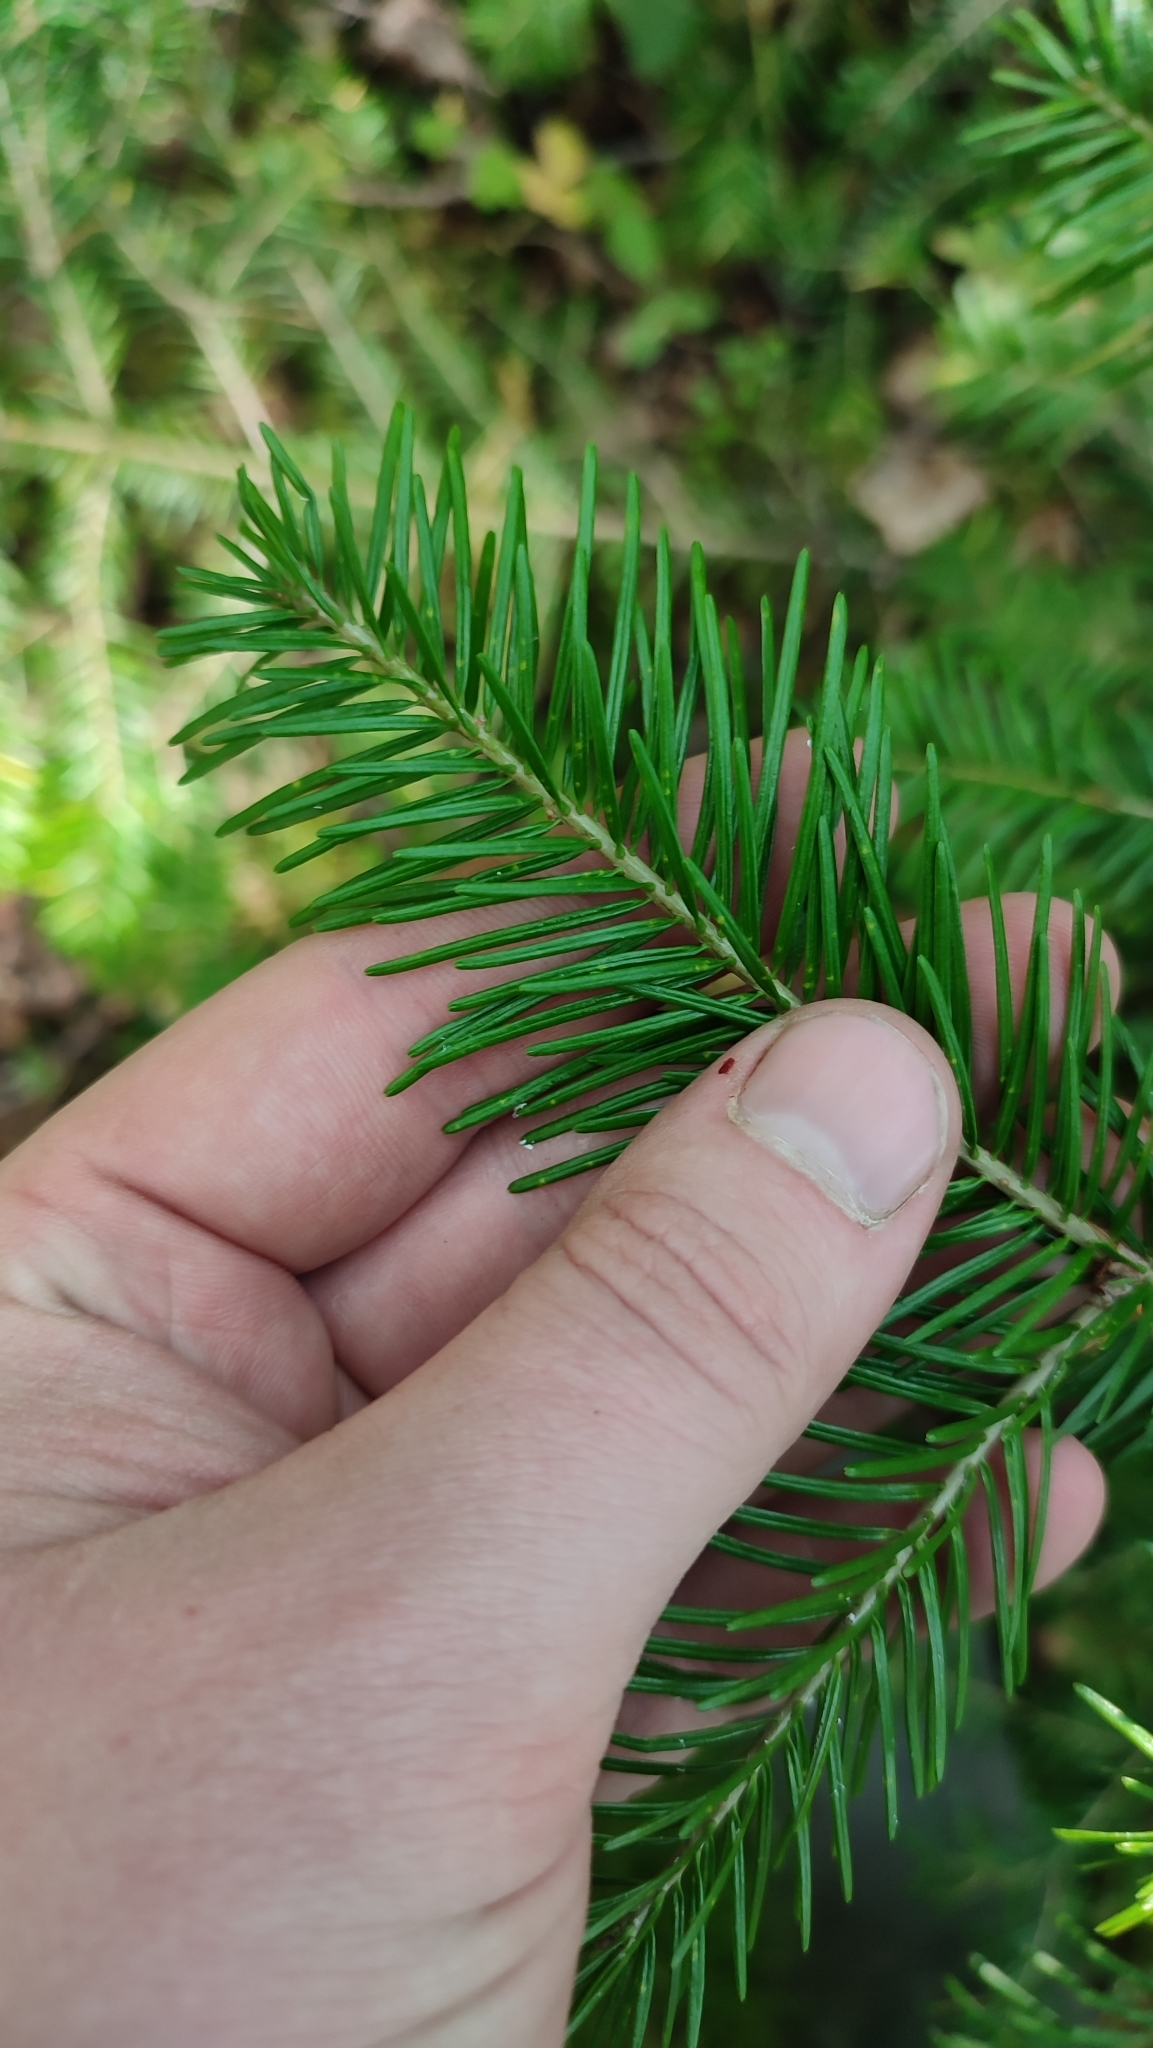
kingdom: Plantae
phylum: Tracheophyta
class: Pinopsida
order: Pinales
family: Pinaceae
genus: Abies
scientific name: Abies sibirica
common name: Siberian fir
